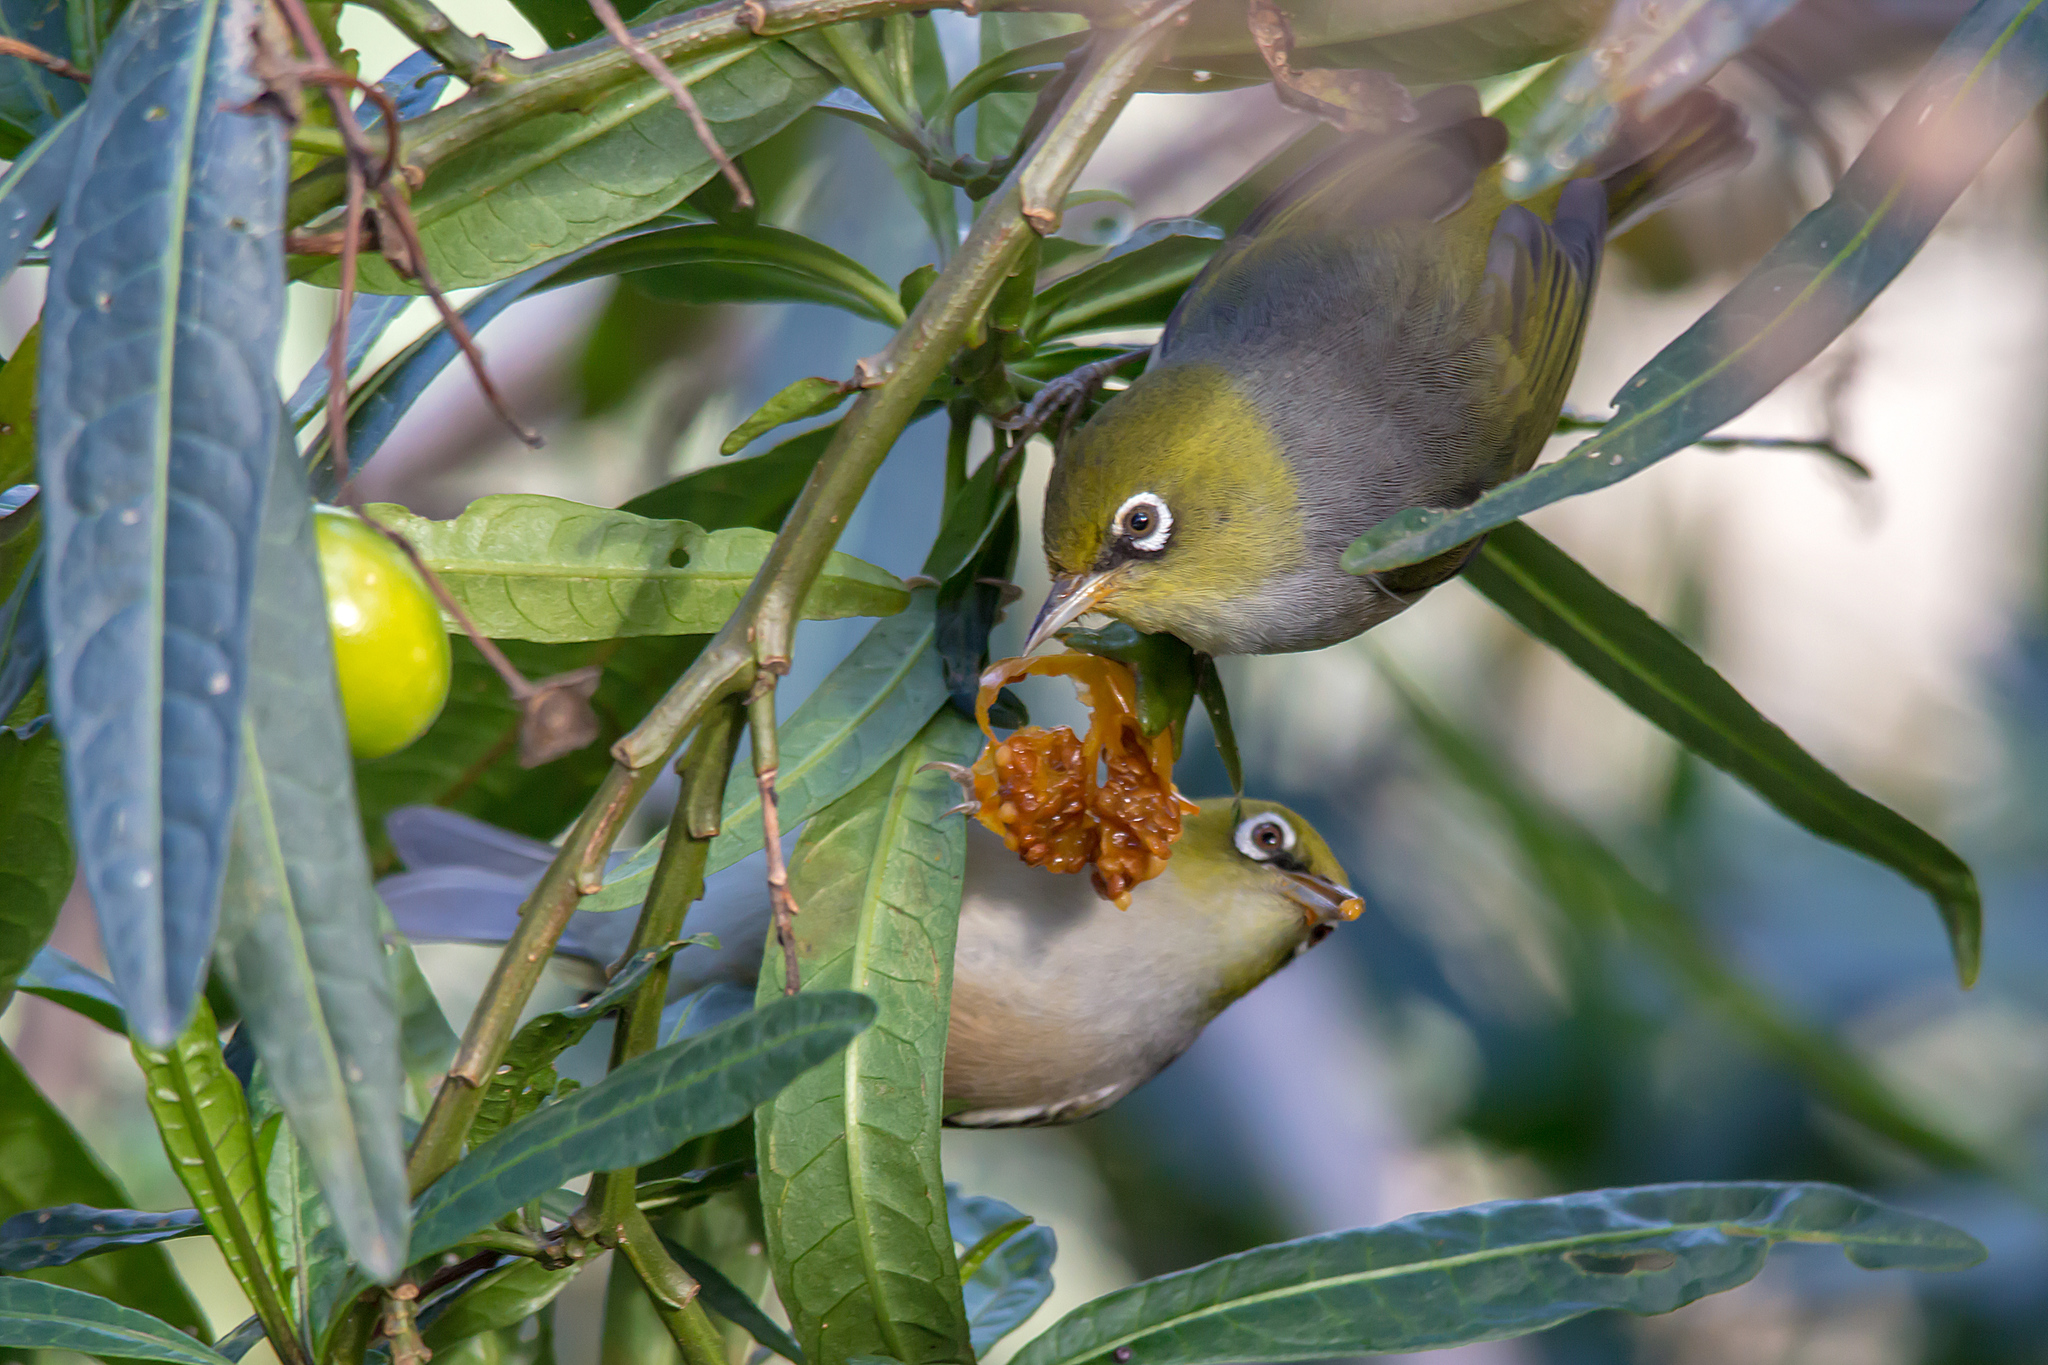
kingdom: Animalia
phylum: Chordata
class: Aves
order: Passeriformes
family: Zosteropidae
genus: Zosterops
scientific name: Zosterops lateralis
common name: Silvereye
